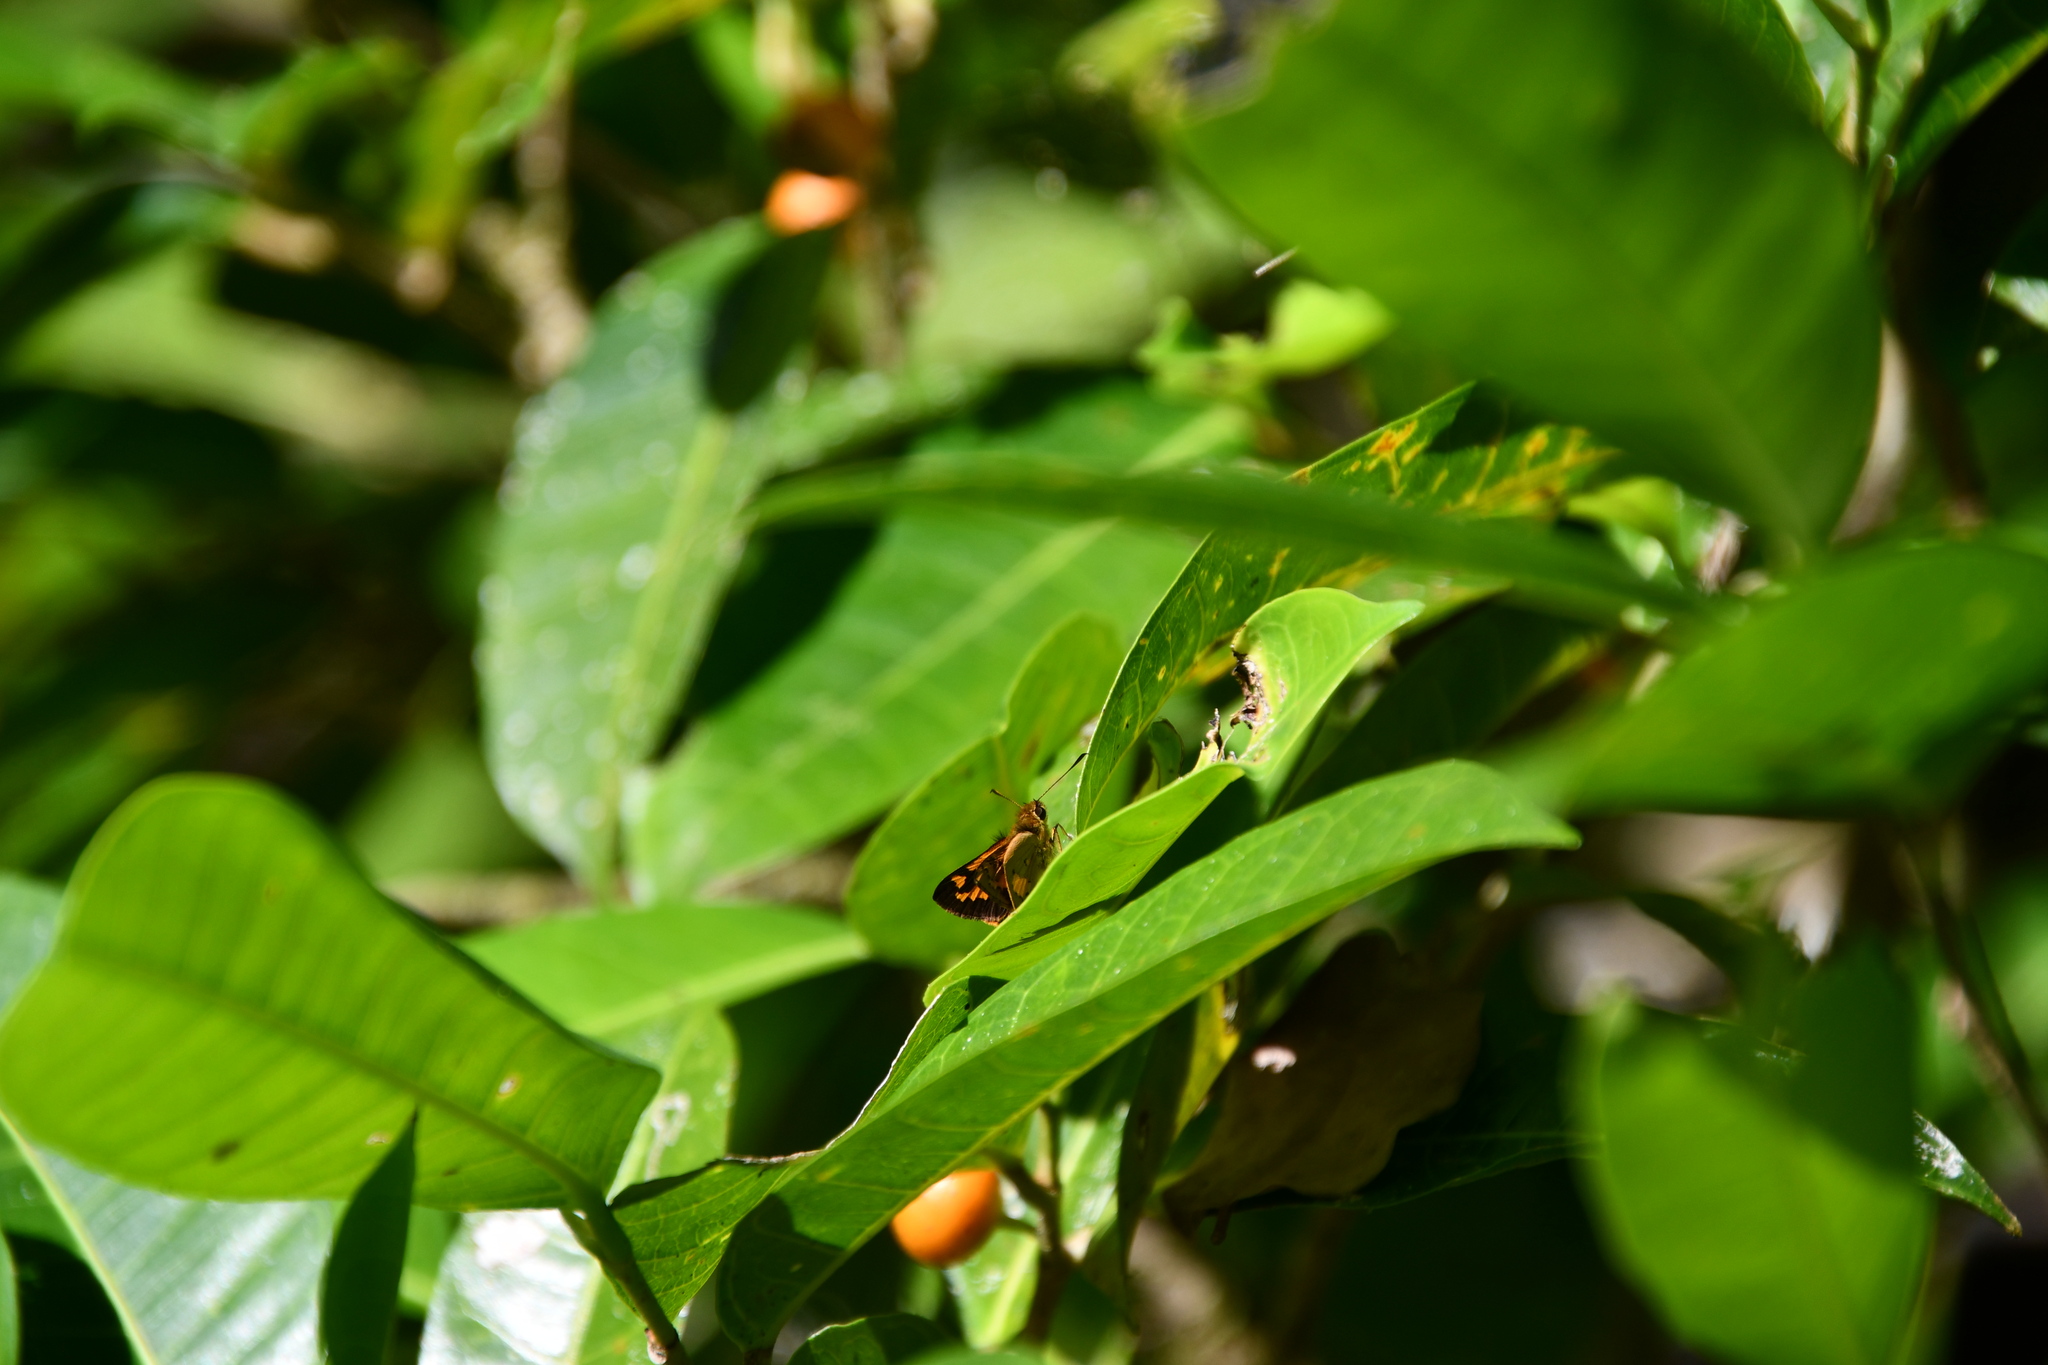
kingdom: Animalia
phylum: Arthropoda
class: Insecta
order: Lepidoptera
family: Hesperiidae
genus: Ocybadistes
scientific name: Ocybadistes ardea
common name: Dark orange dart
